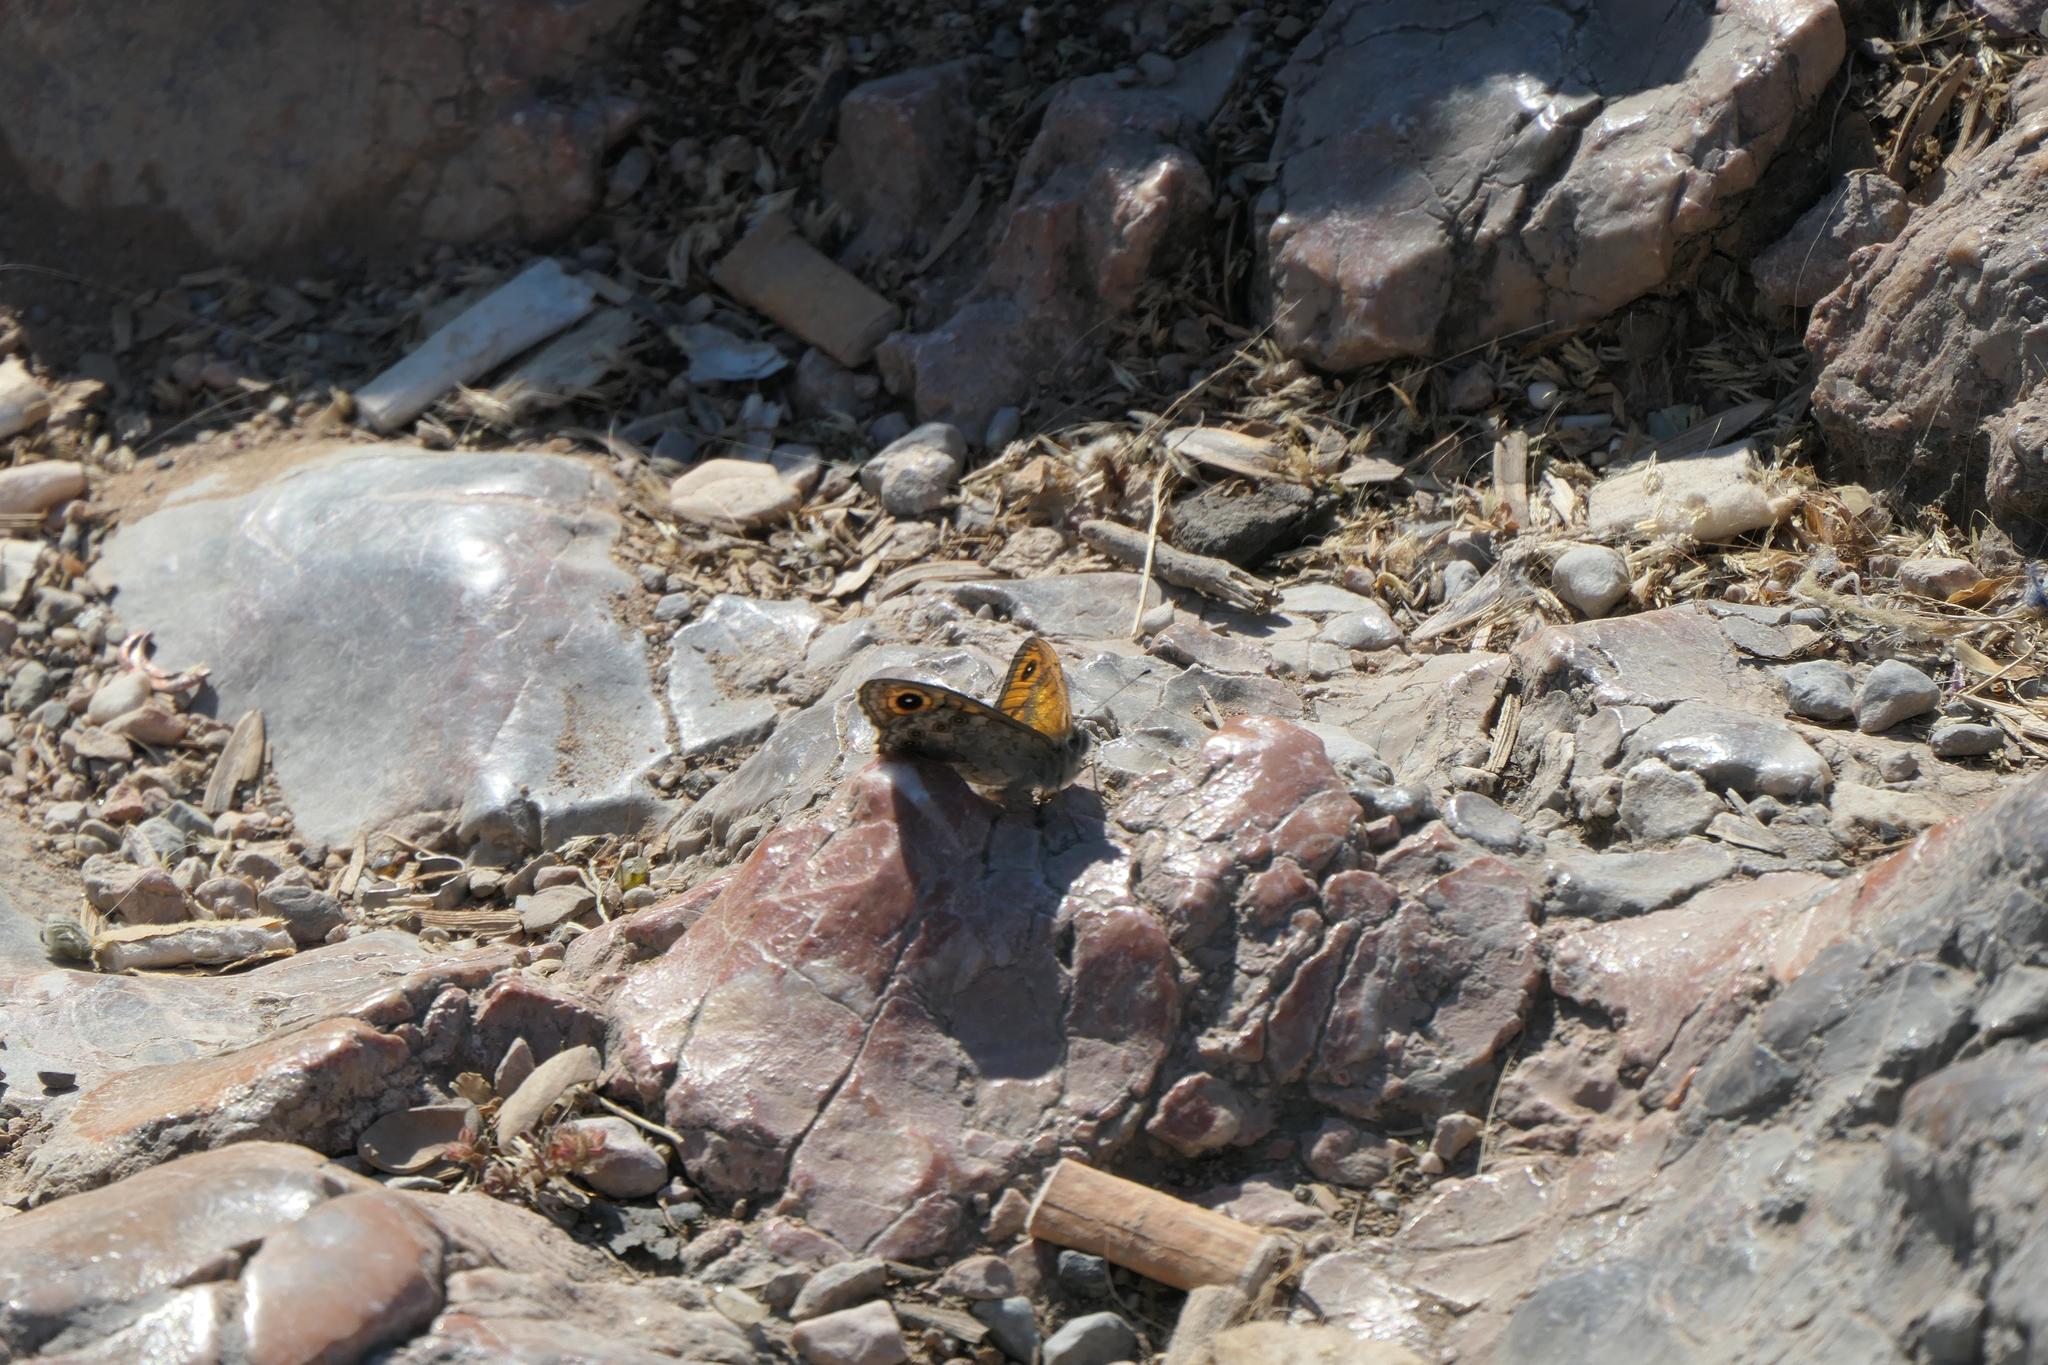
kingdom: Animalia
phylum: Arthropoda
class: Insecta
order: Lepidoptera
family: Nymphalidae
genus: Pararge
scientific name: Pararge Lasiommata megera
